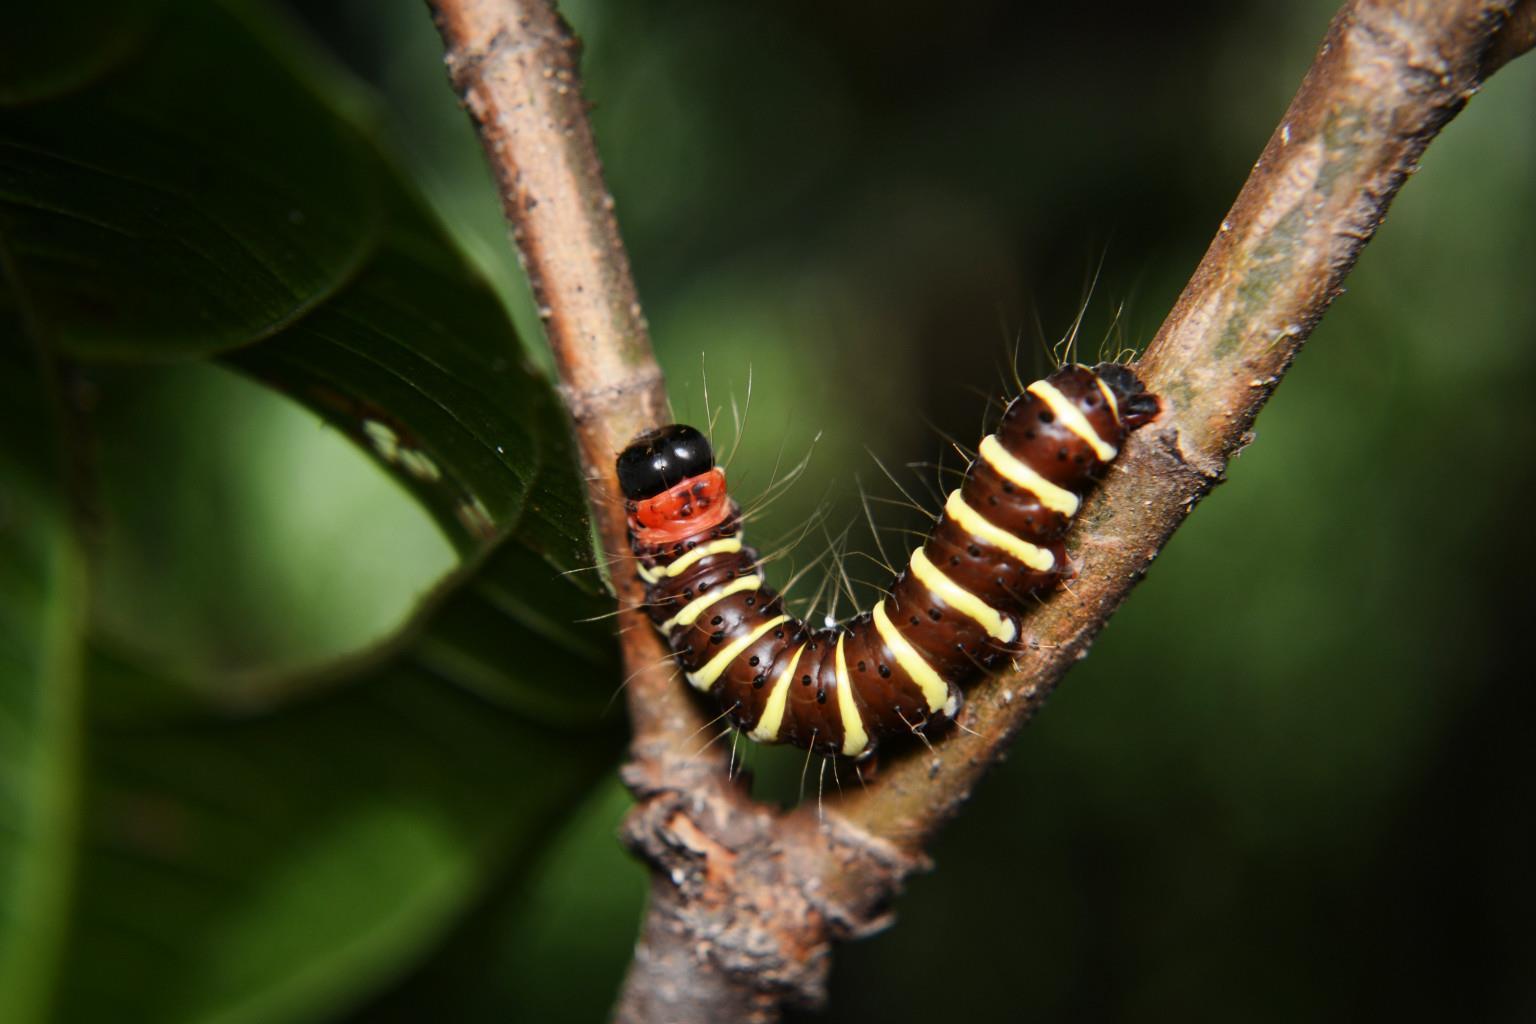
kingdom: Animalia
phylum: Arthropoda
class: Insecta
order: Lepidoptera
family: Erebidae
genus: Asota
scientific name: Asota plana
